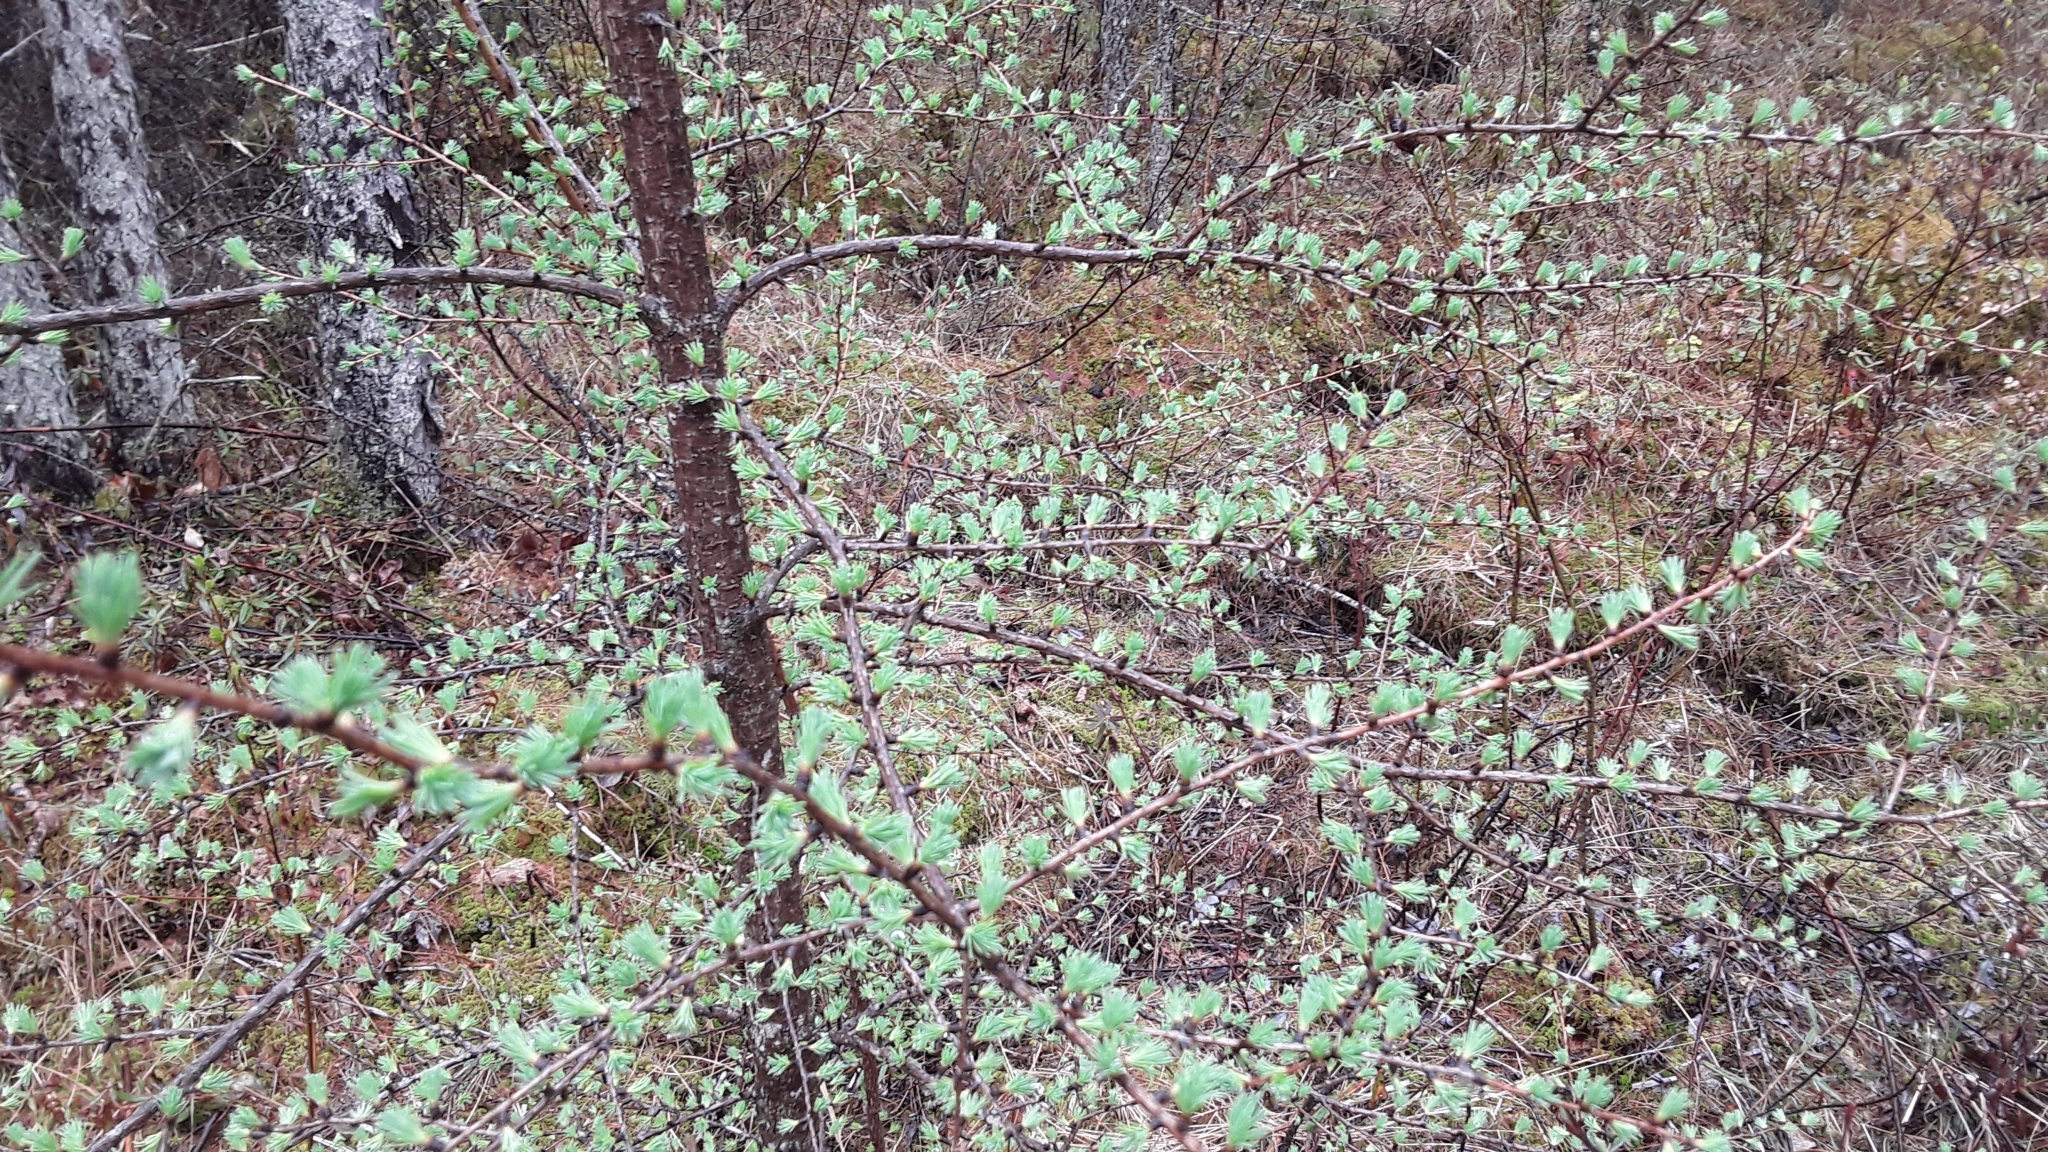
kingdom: Plantae
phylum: Tracheophyta
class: Pinopsida
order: Pinales
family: Pinaceae
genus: Larix
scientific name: Larix laricina
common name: American larch
